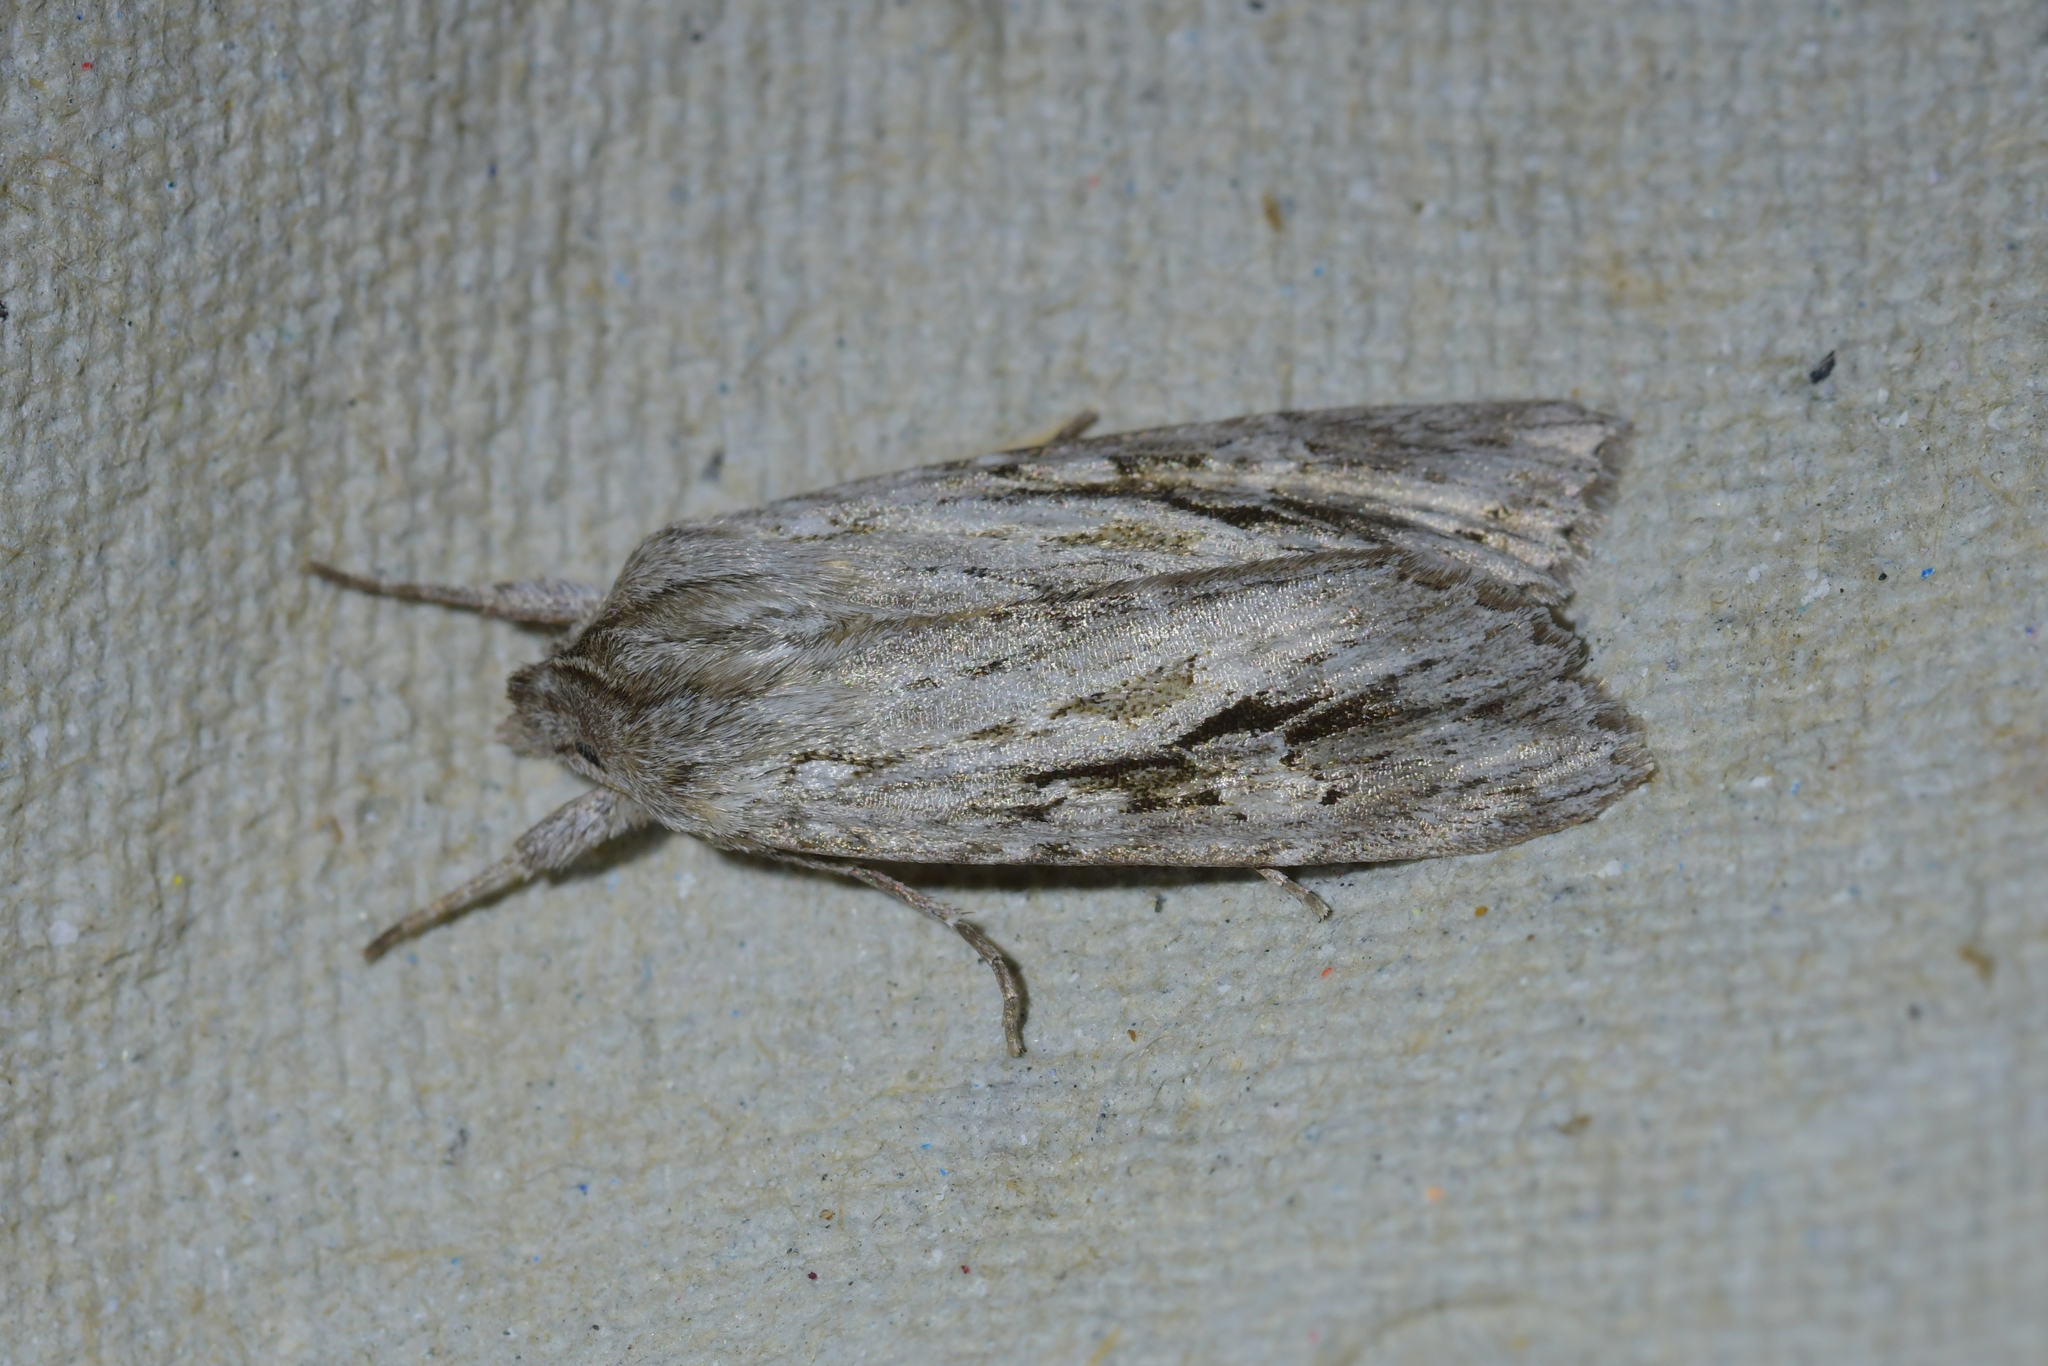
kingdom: Animalia
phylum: Arthropoda
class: Insecta
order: Lepidoptera
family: Noctuidae
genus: Physetica
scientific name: Physetica sequens
